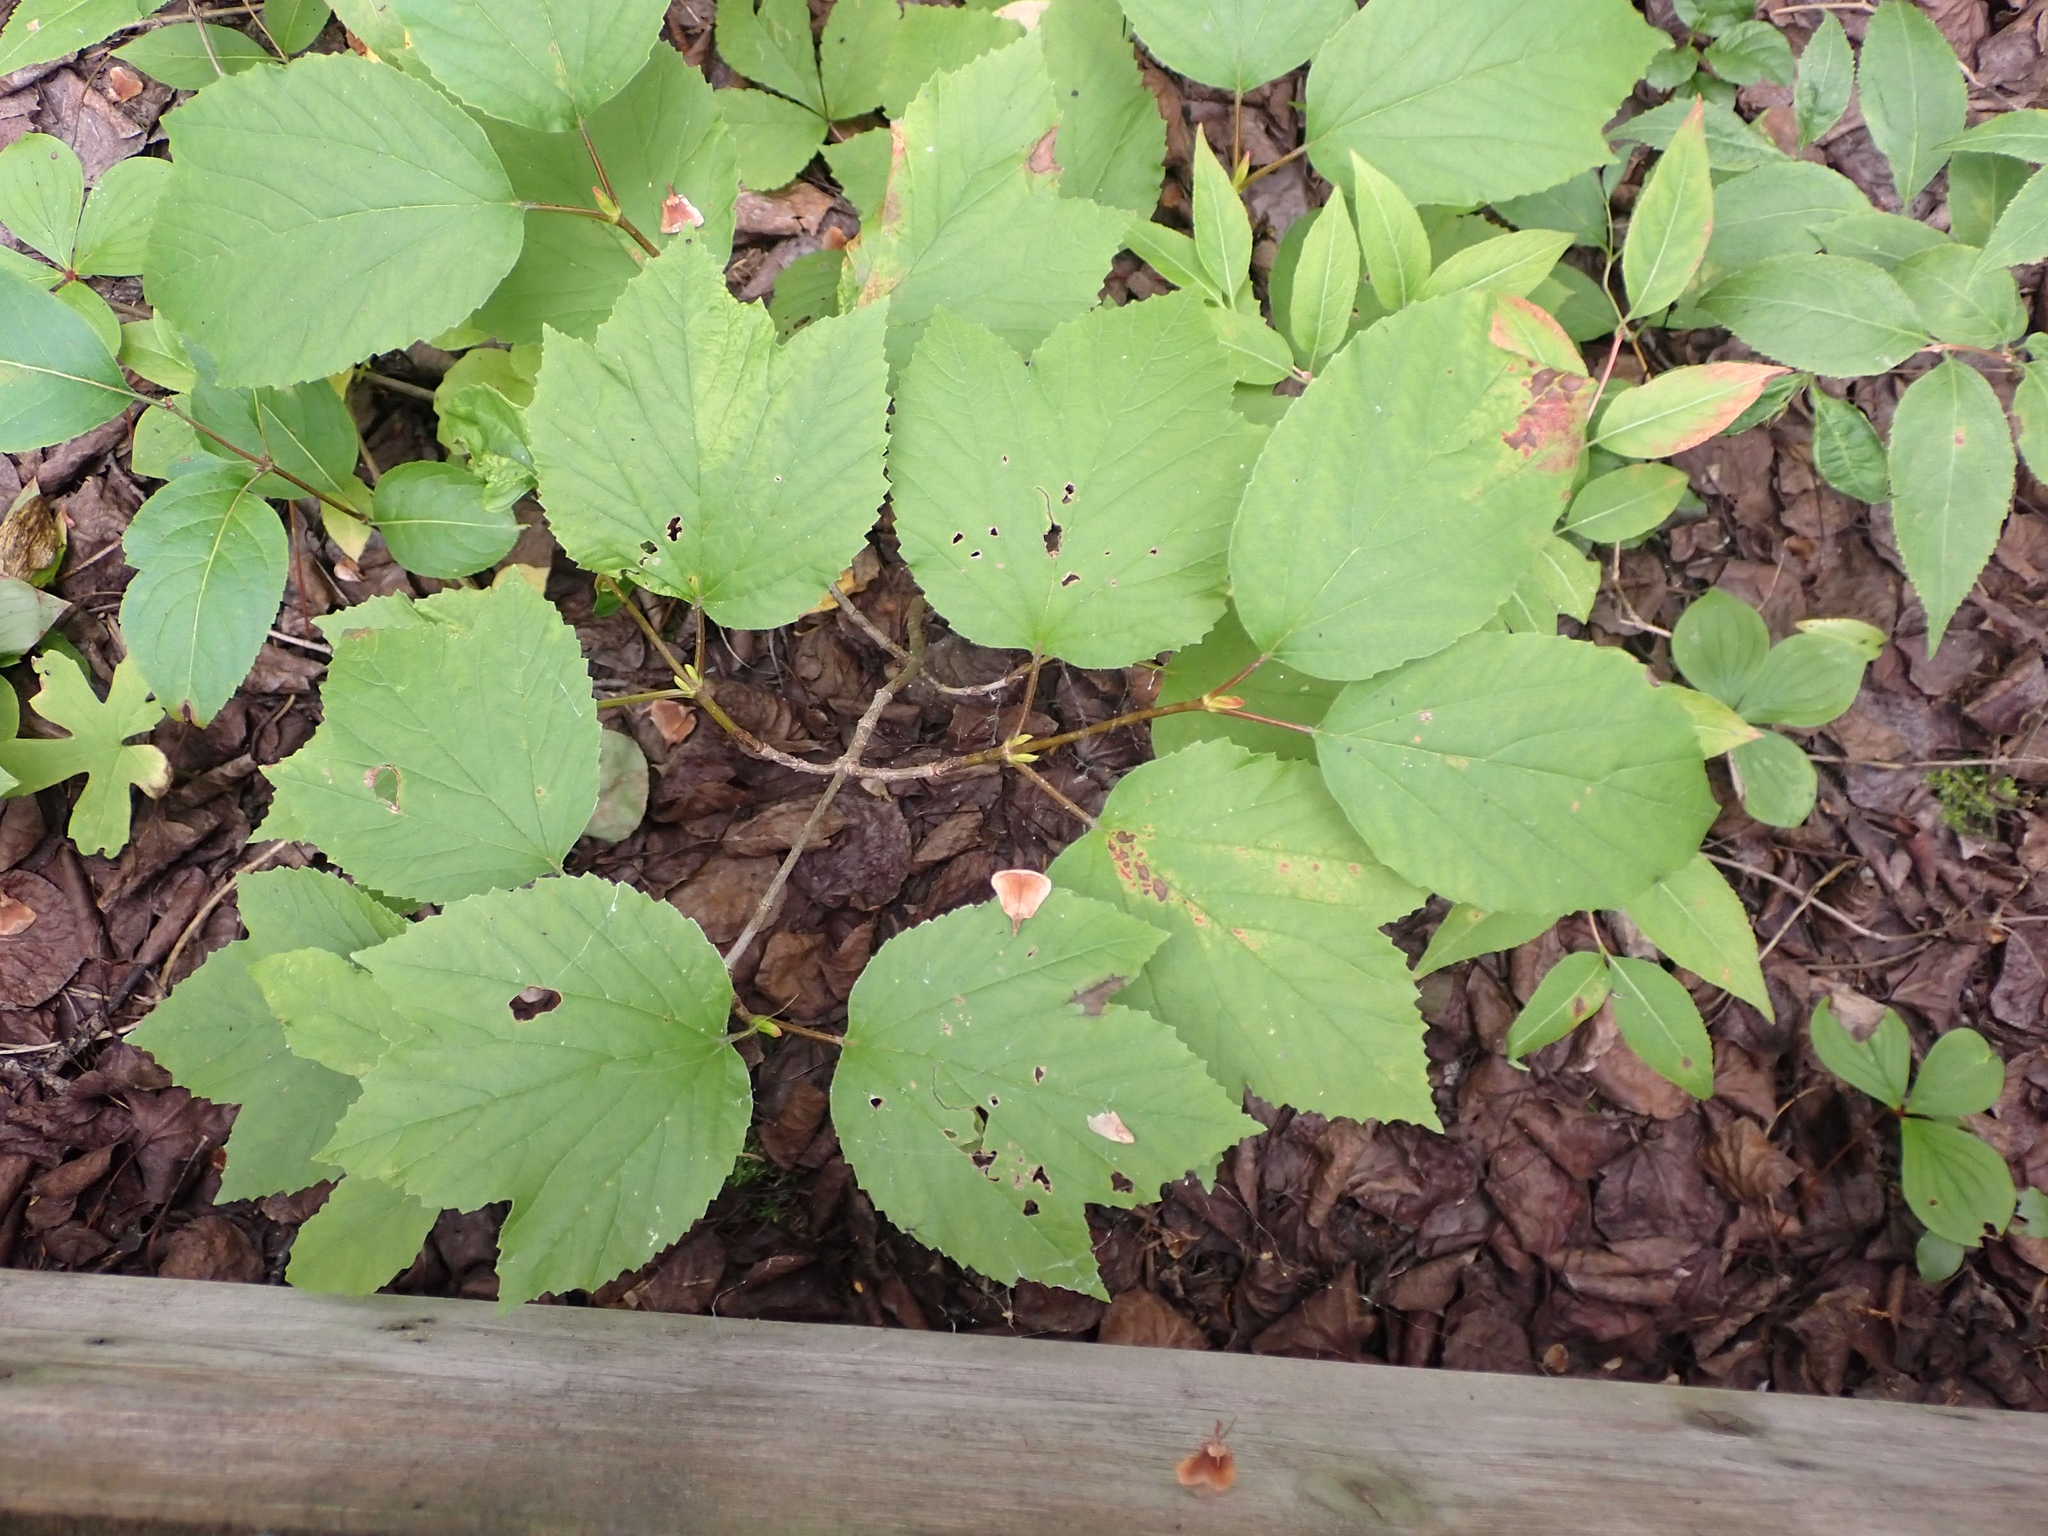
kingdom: Plantae
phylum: Tracheophyta
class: Magnoliopsida
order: Dipsacales
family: Viburnaceae
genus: Viburnum
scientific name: Viburnum edule
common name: Mooseberry
